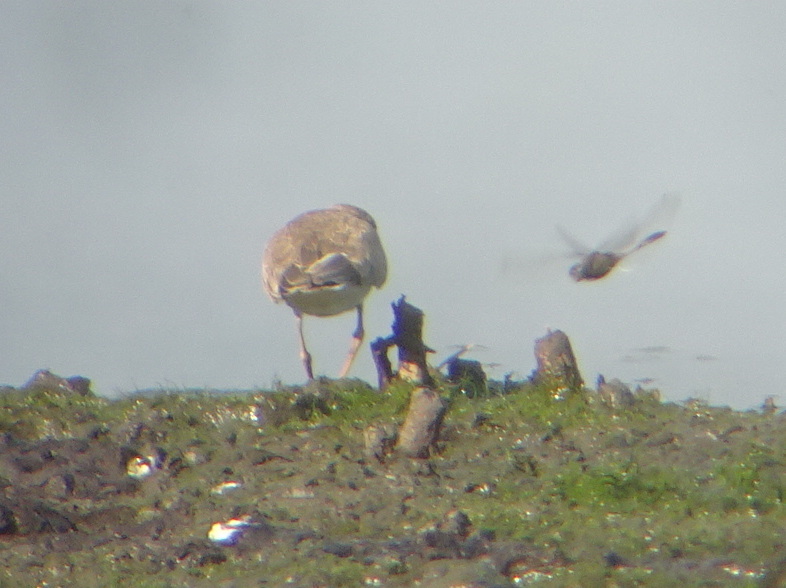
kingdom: Animalia
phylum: Chordata
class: Aves
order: Charadriiformes
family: Charadriidae
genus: Charadrius
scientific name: Charadrius dubius
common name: Little ringed plover
